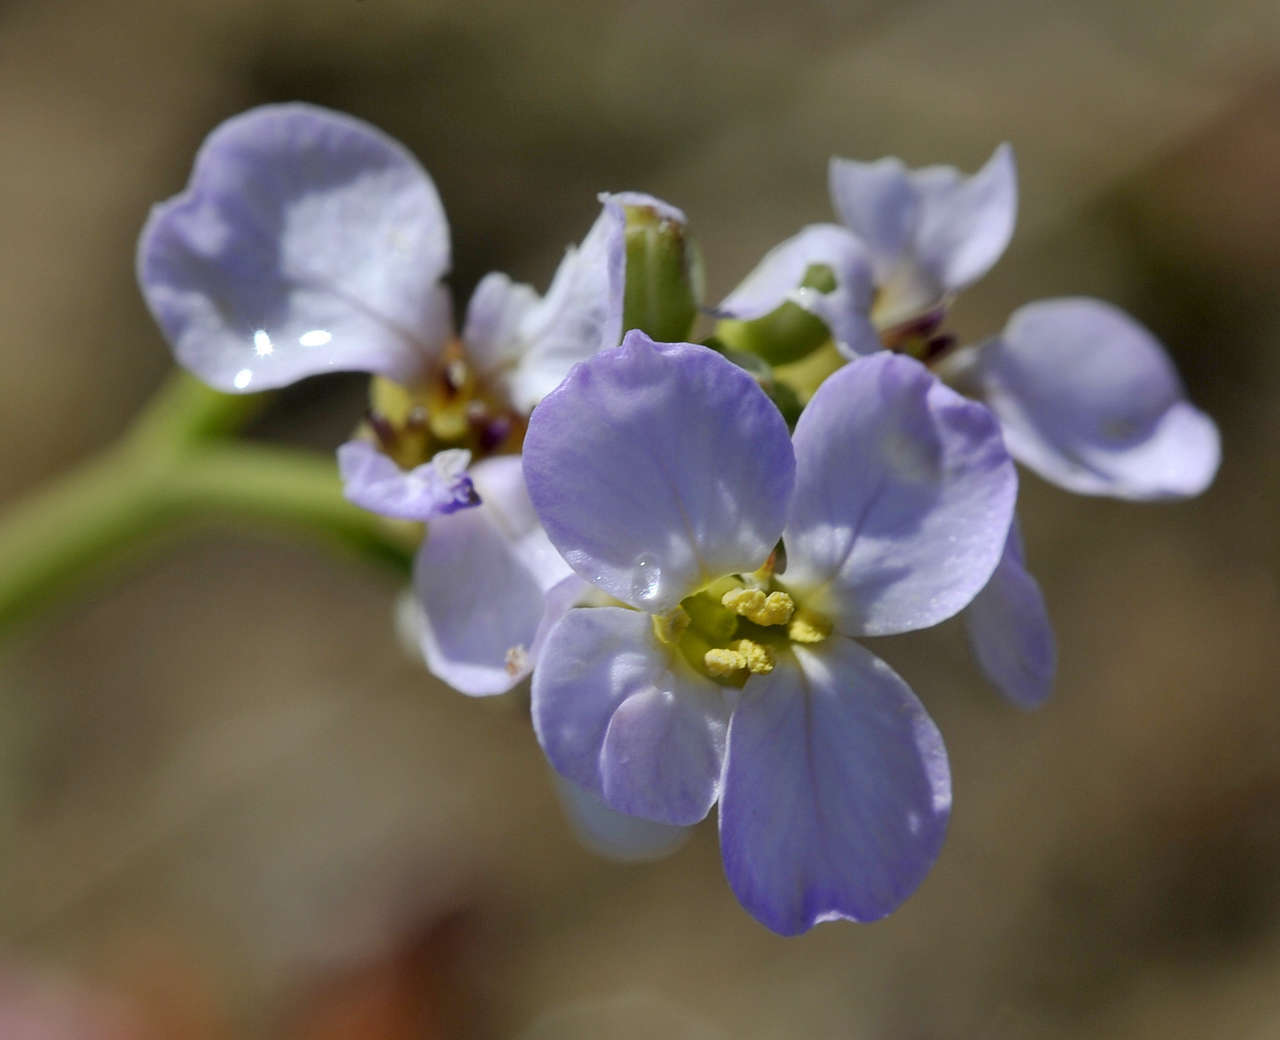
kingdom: Plantae
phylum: Tracheophyta
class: Magnoliopsida
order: Brassicales
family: Brassicaceae
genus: Cakile
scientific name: Cakile maritima
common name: Sea rocket
